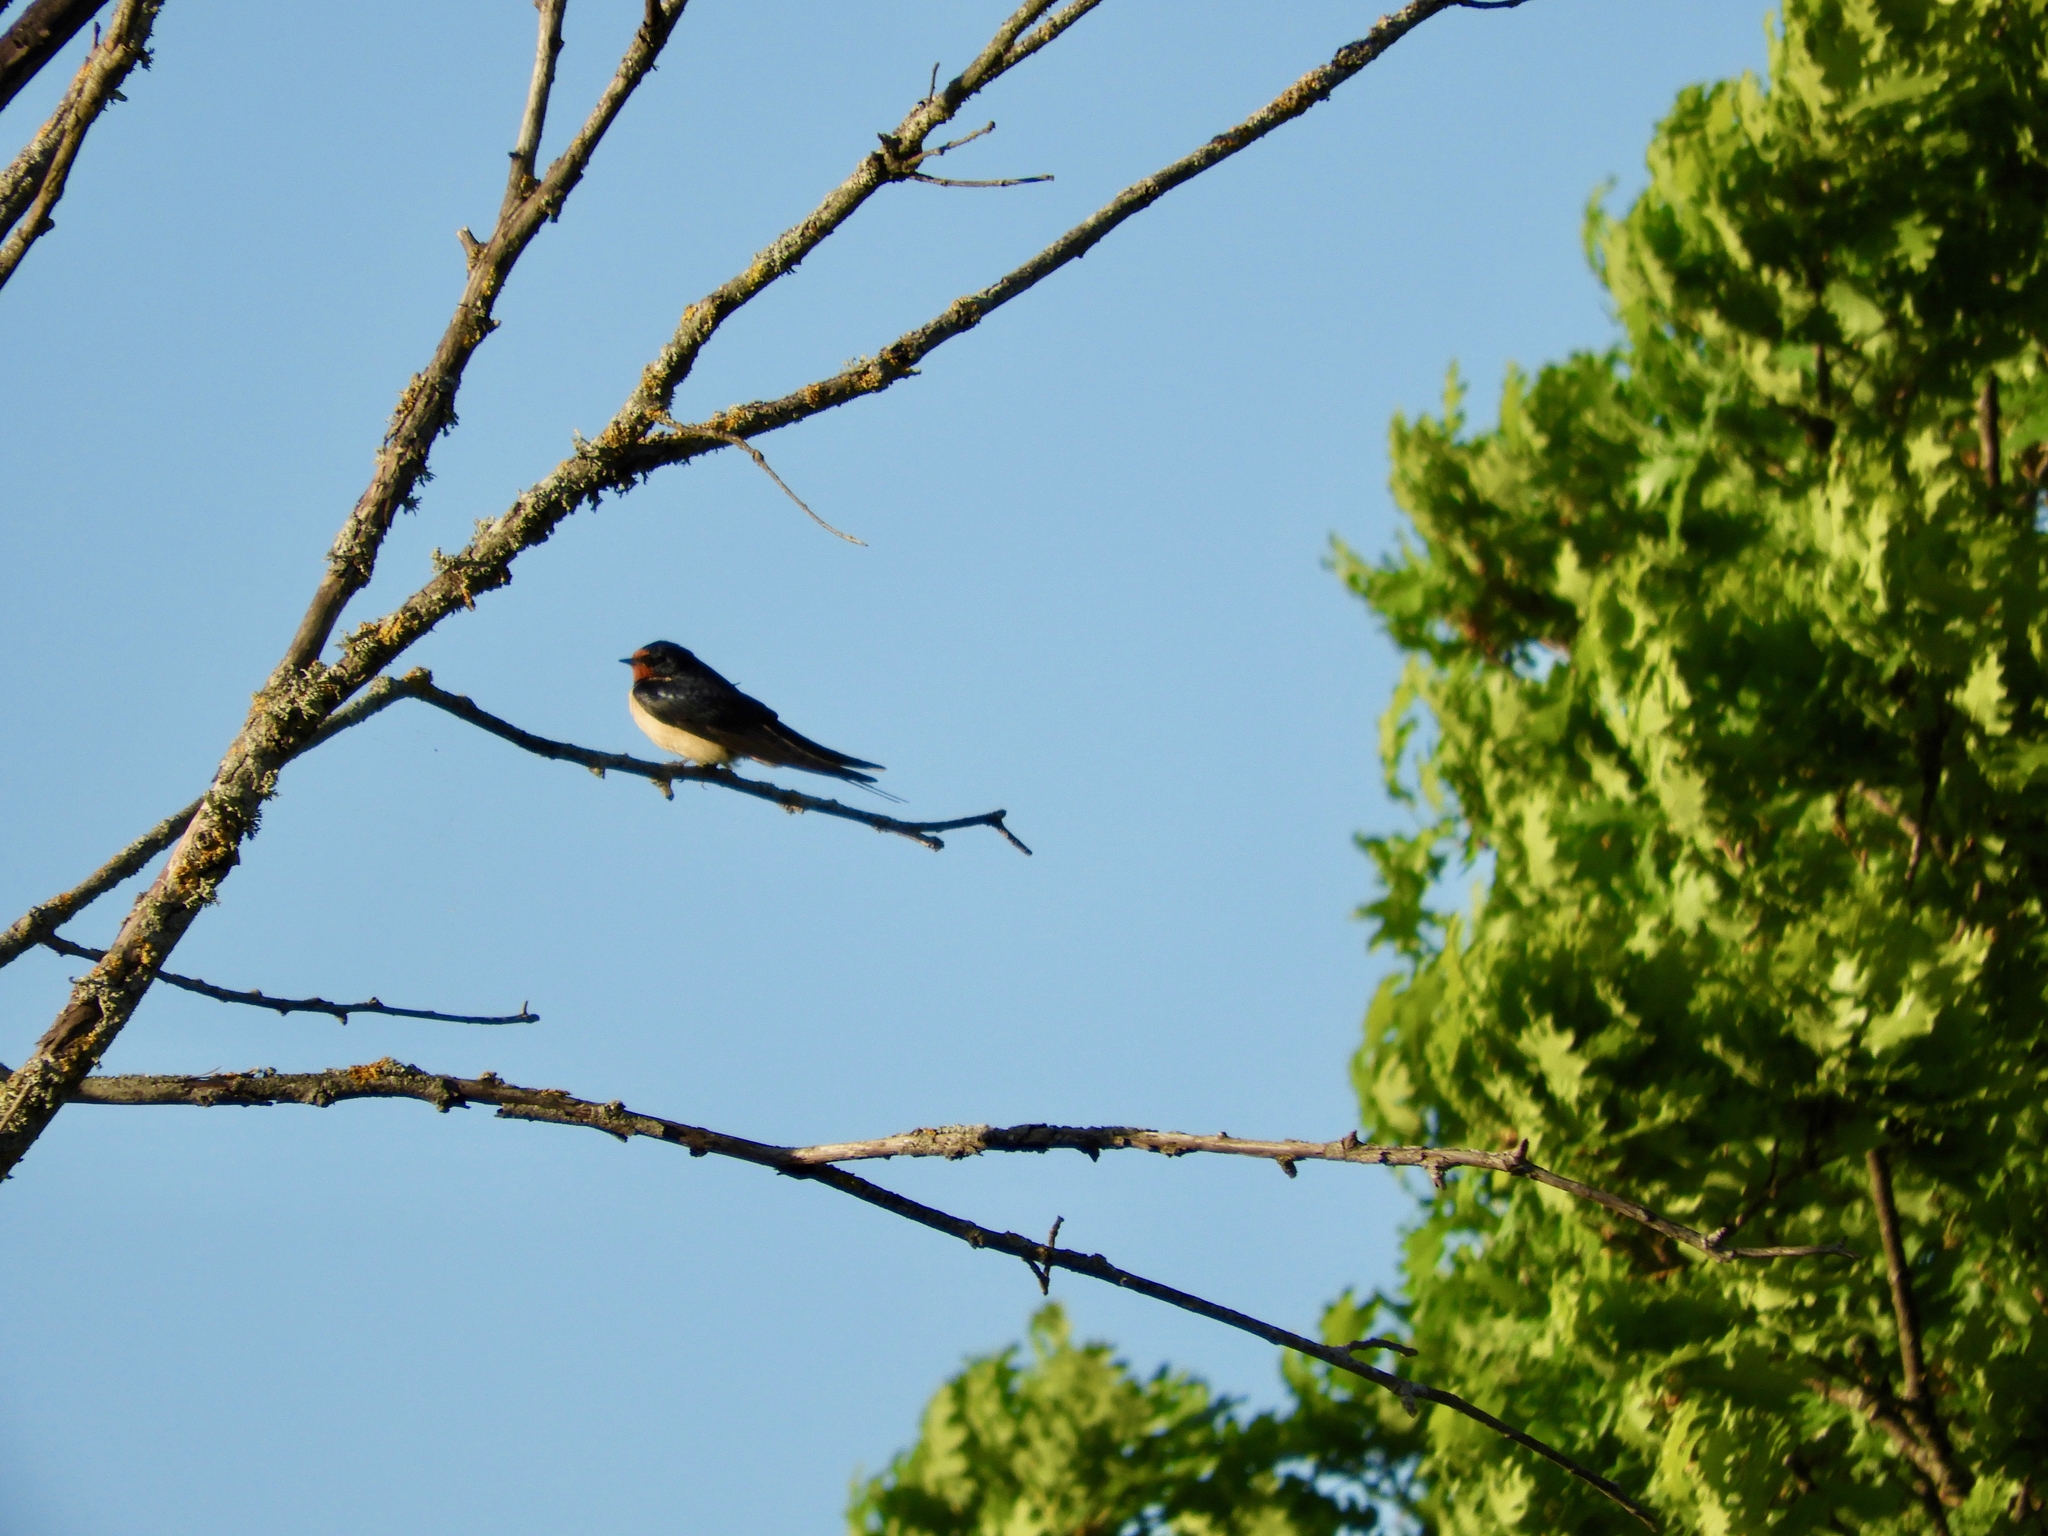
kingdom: Animalia
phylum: Chordata
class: Aves
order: Passeriformes
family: Hirundinidae
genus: Hirundo
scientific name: Hirundo rustica
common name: Barn swallow
